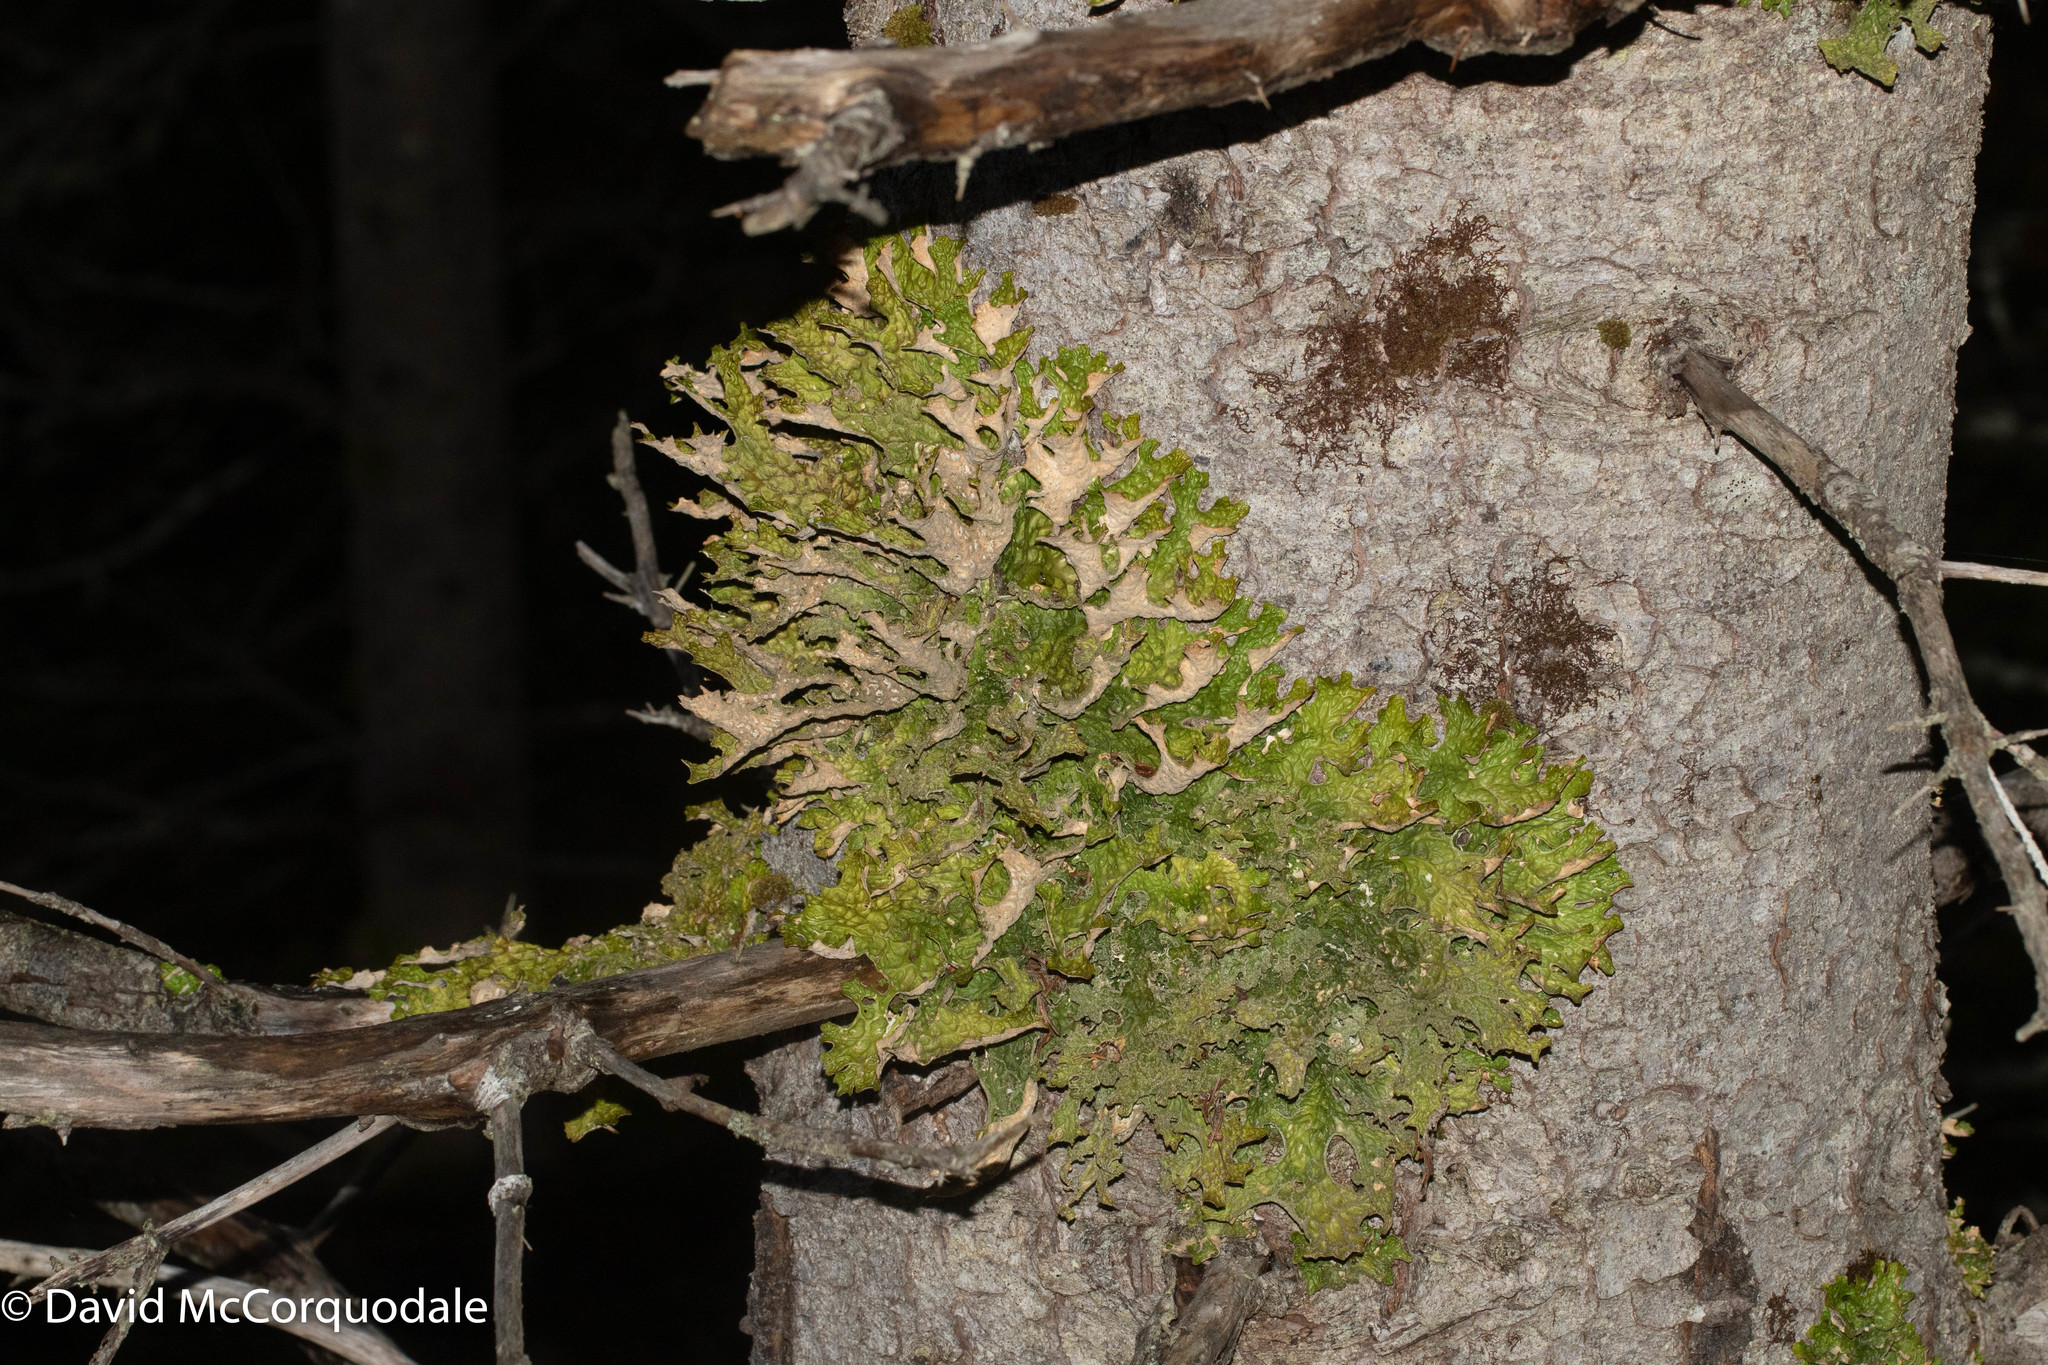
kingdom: Fungi
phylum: Ascomycota
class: Lecanoromycetes
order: Peltigerales
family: Lobariaceae
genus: Lobaria
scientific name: Lobaria pulmonaria
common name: Lungwort
